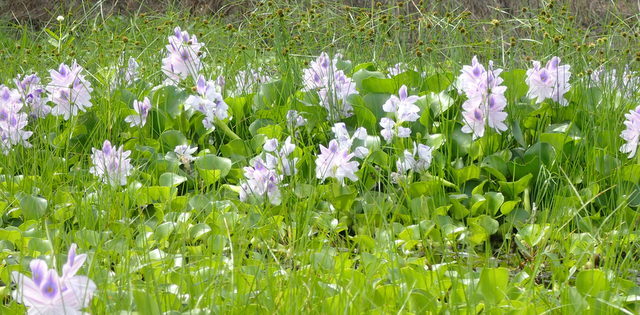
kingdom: Plantae
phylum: Tracheophyta
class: Liliopsida
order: Commelinales
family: Pontederiaceae
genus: Pontederia
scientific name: Pontederia crassipes
